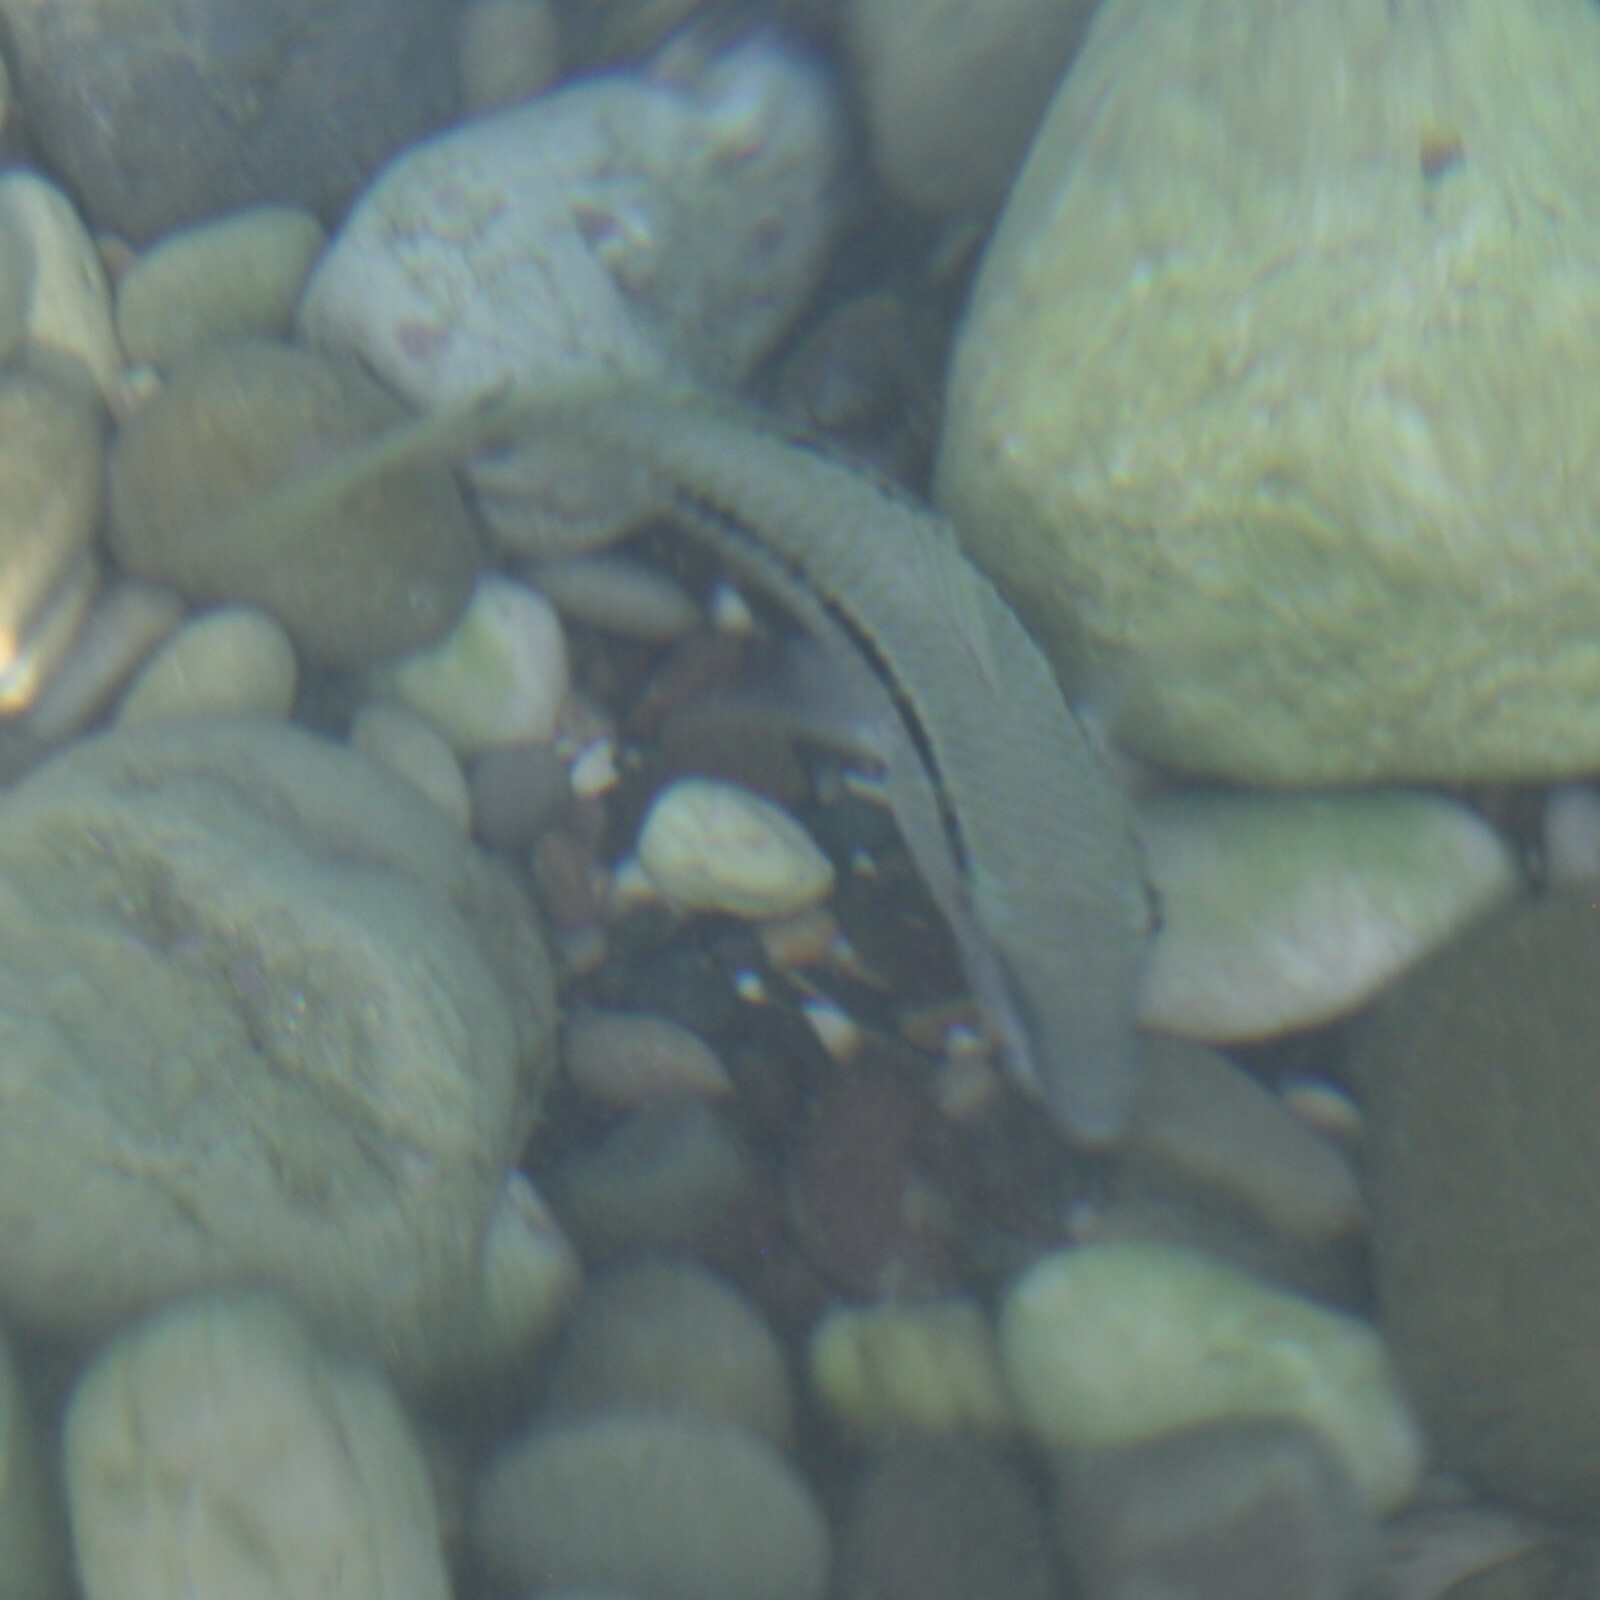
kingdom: Animalia
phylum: Chordata
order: Perciformes
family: Mullidae
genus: Parupeneus
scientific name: Parupeneus forsskali
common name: Red sea goatfish
